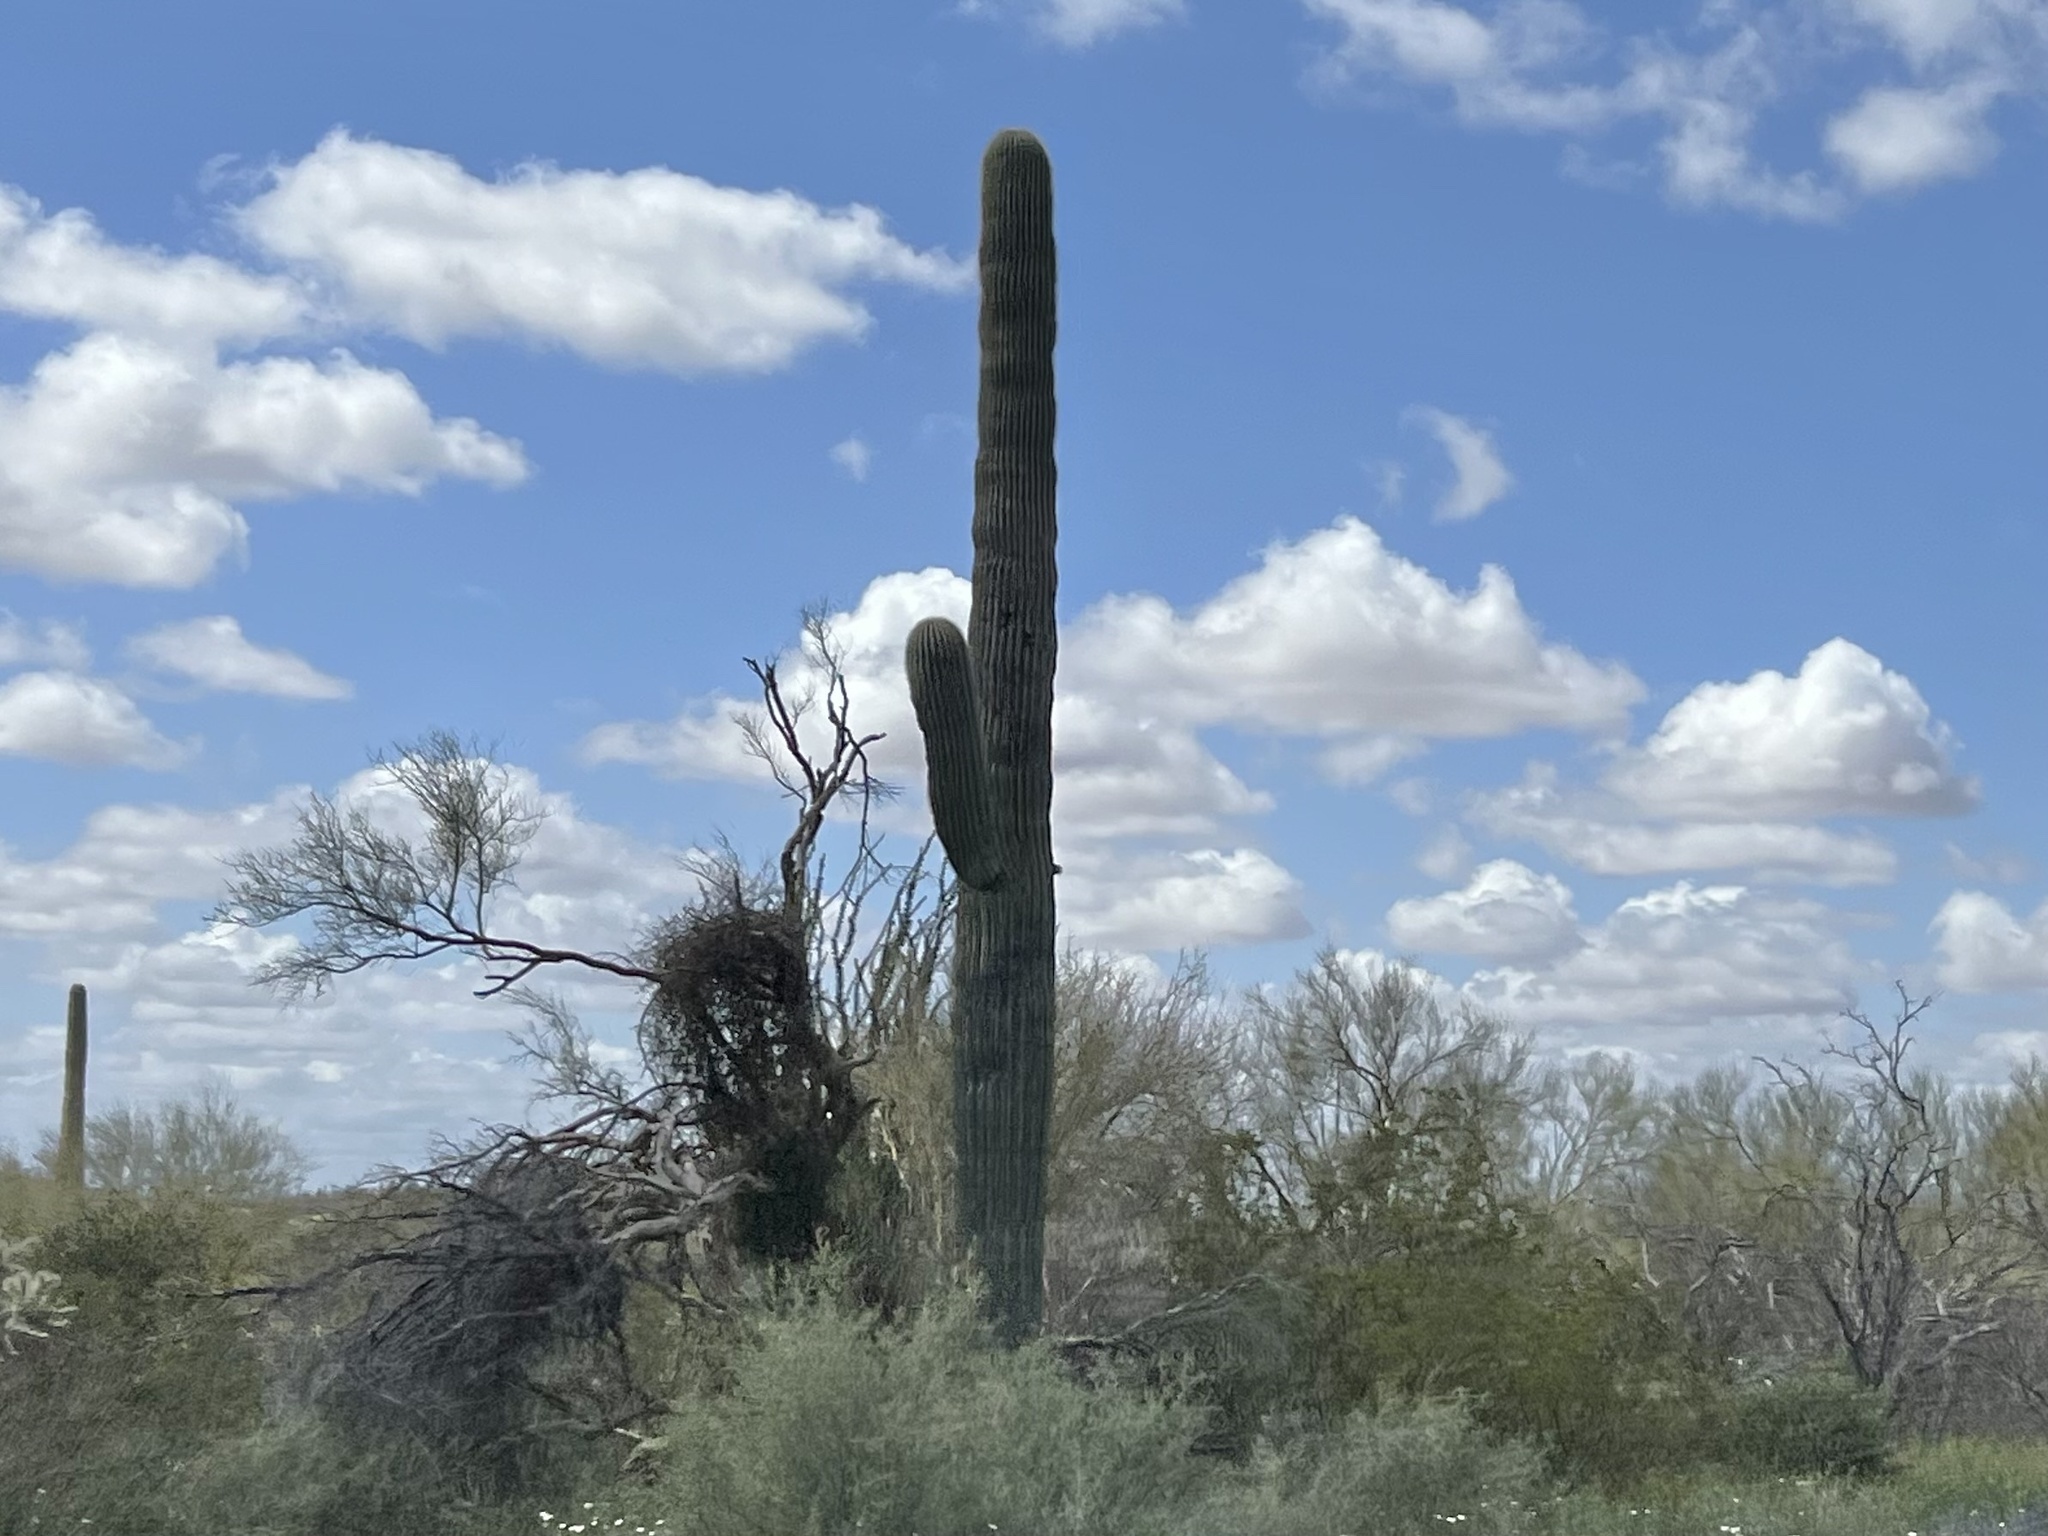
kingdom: Plantae
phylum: Tracheophyta
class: Magnoliopsida
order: Caryophyllales
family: Cactaceae
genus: Carnegiea
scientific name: Carnegiea gigantea
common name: Saguaro
